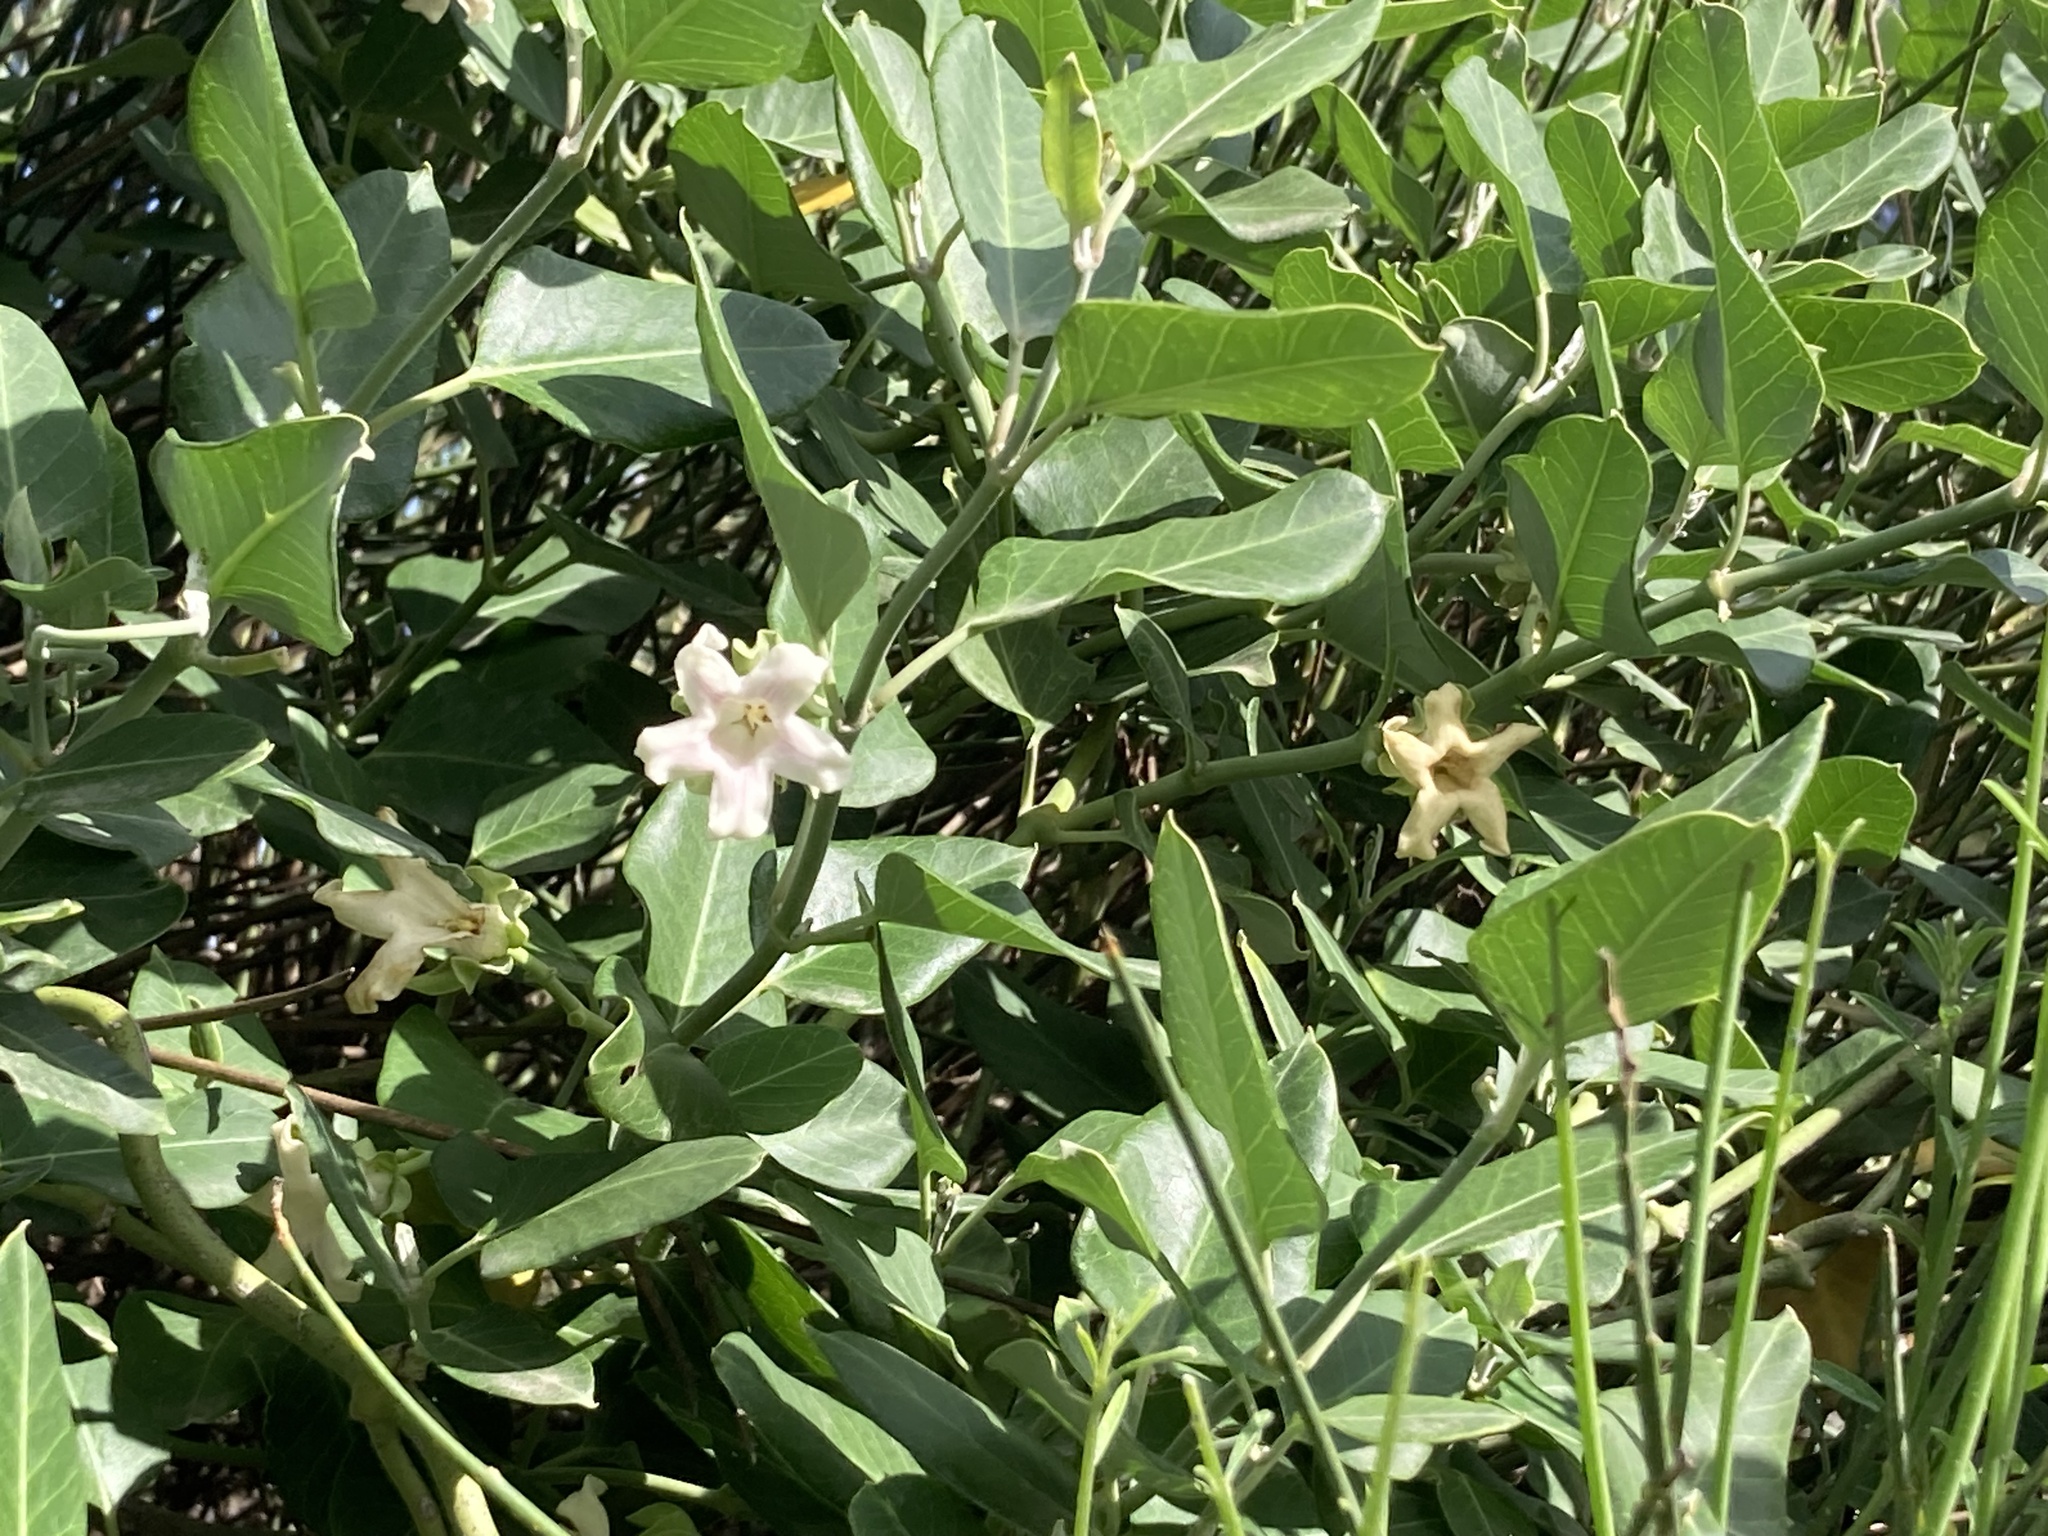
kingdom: Plantae
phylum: Tracheophyta
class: Magnoliopsida
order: Gentianales
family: Apocynaceae
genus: Araujia
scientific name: Araujia sericifera
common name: White bladderflower
